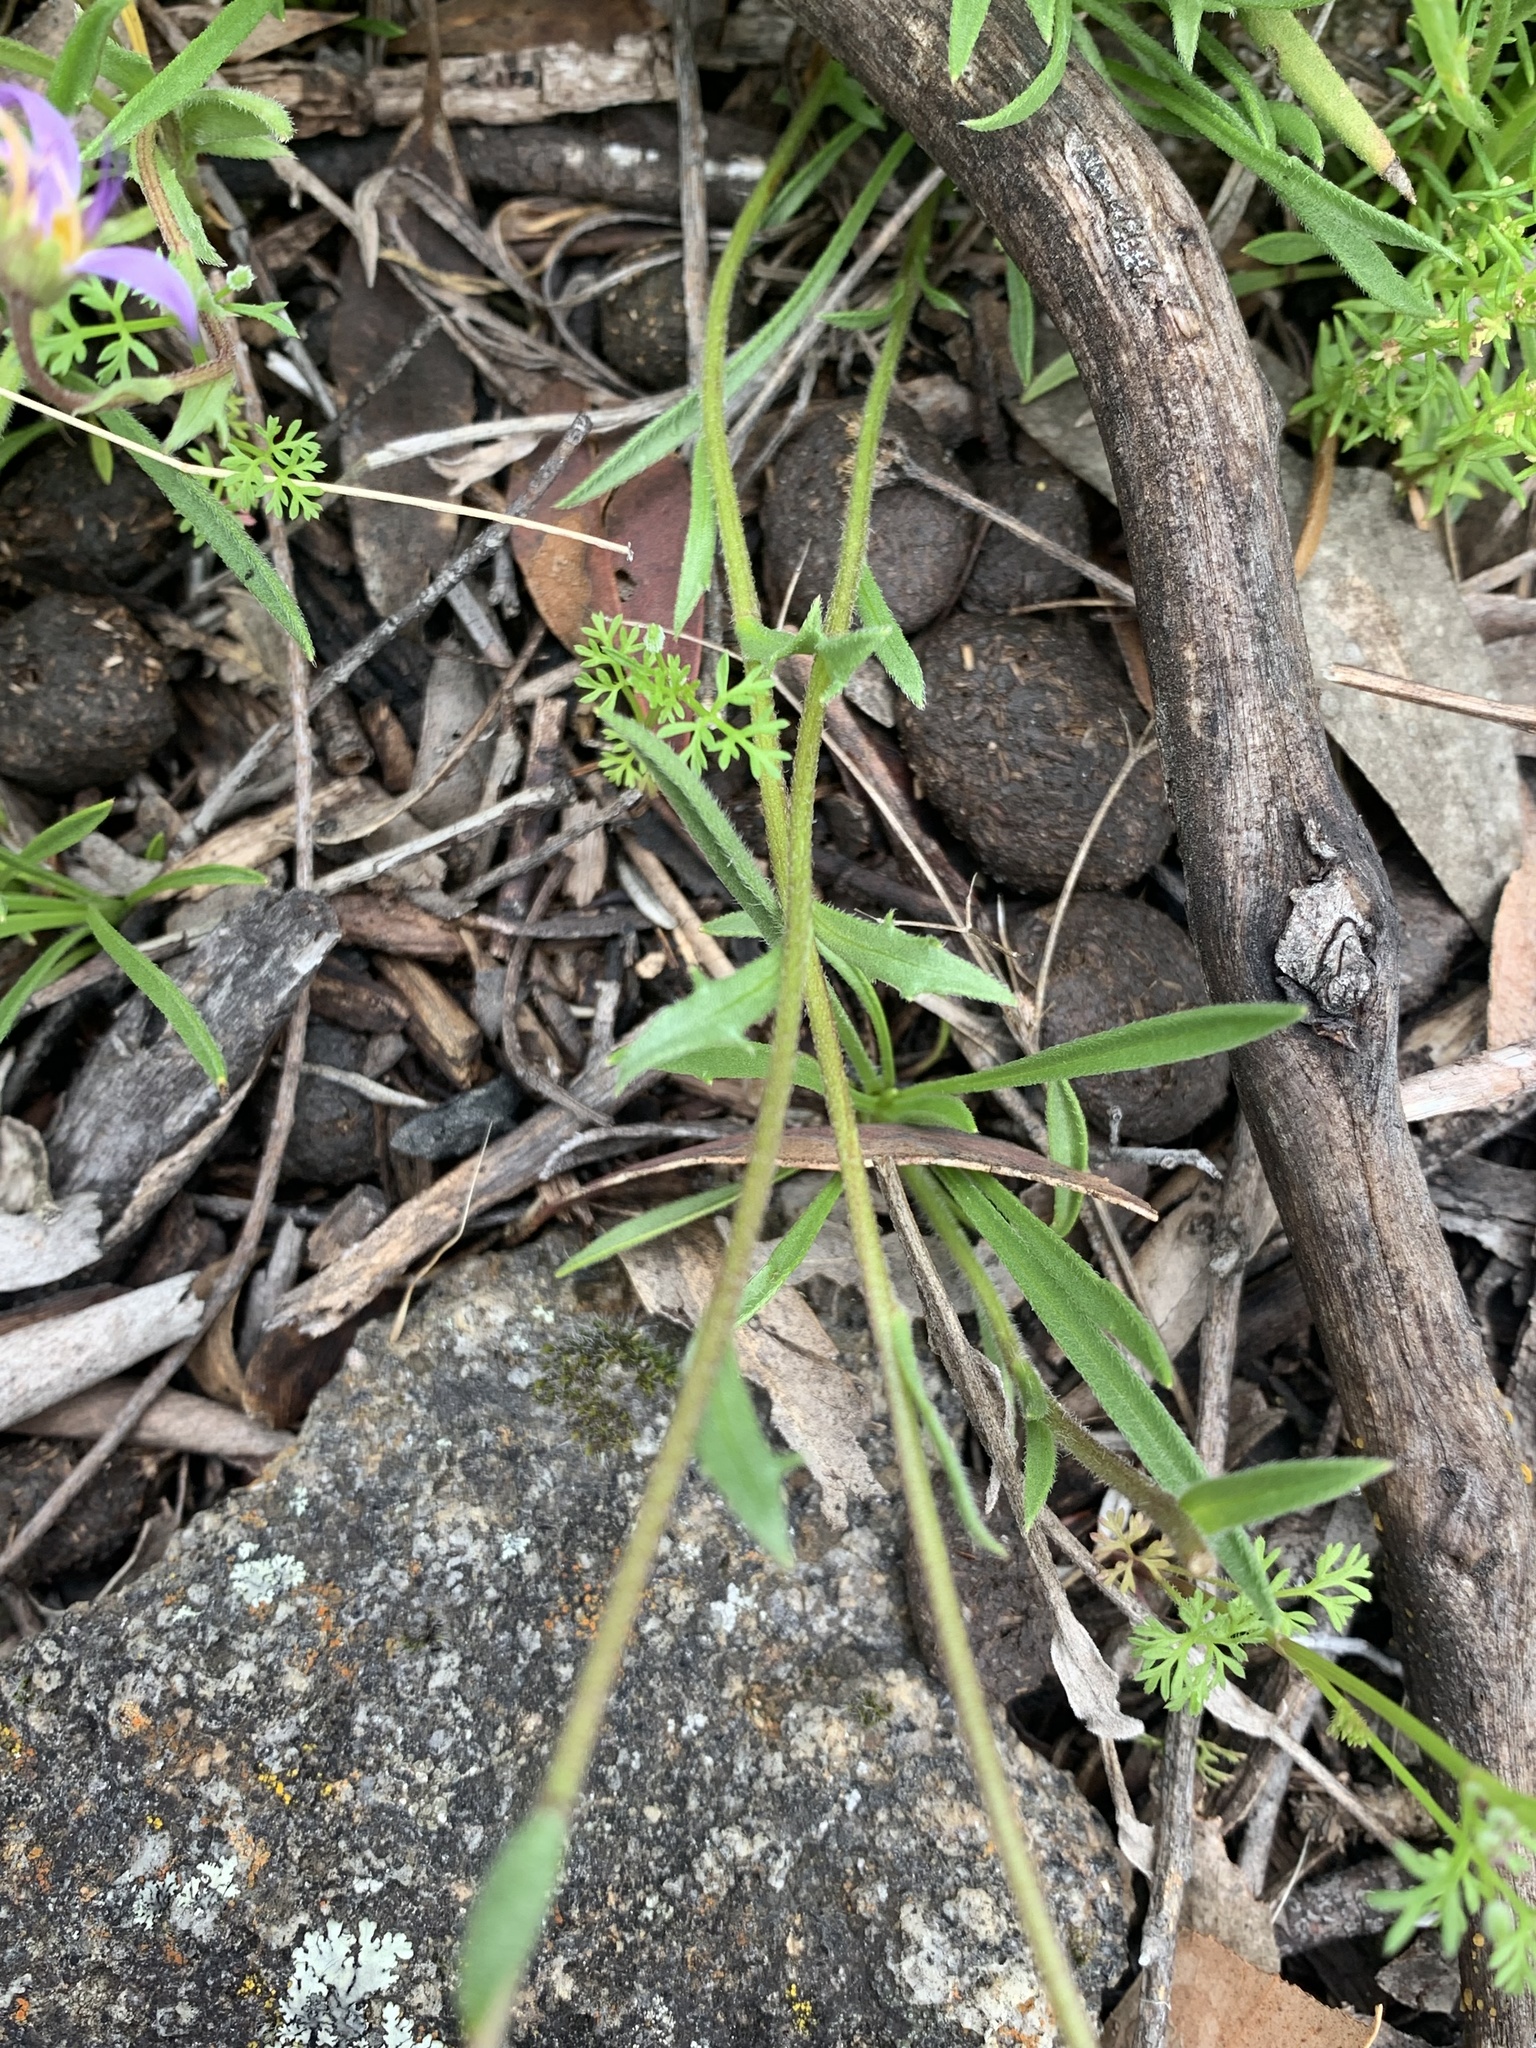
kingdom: Plantae
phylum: Tracheophyta
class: Magnoliopsida
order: Asterales
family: Asteraceae
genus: Calotis
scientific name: Calotis scabiosifolia
